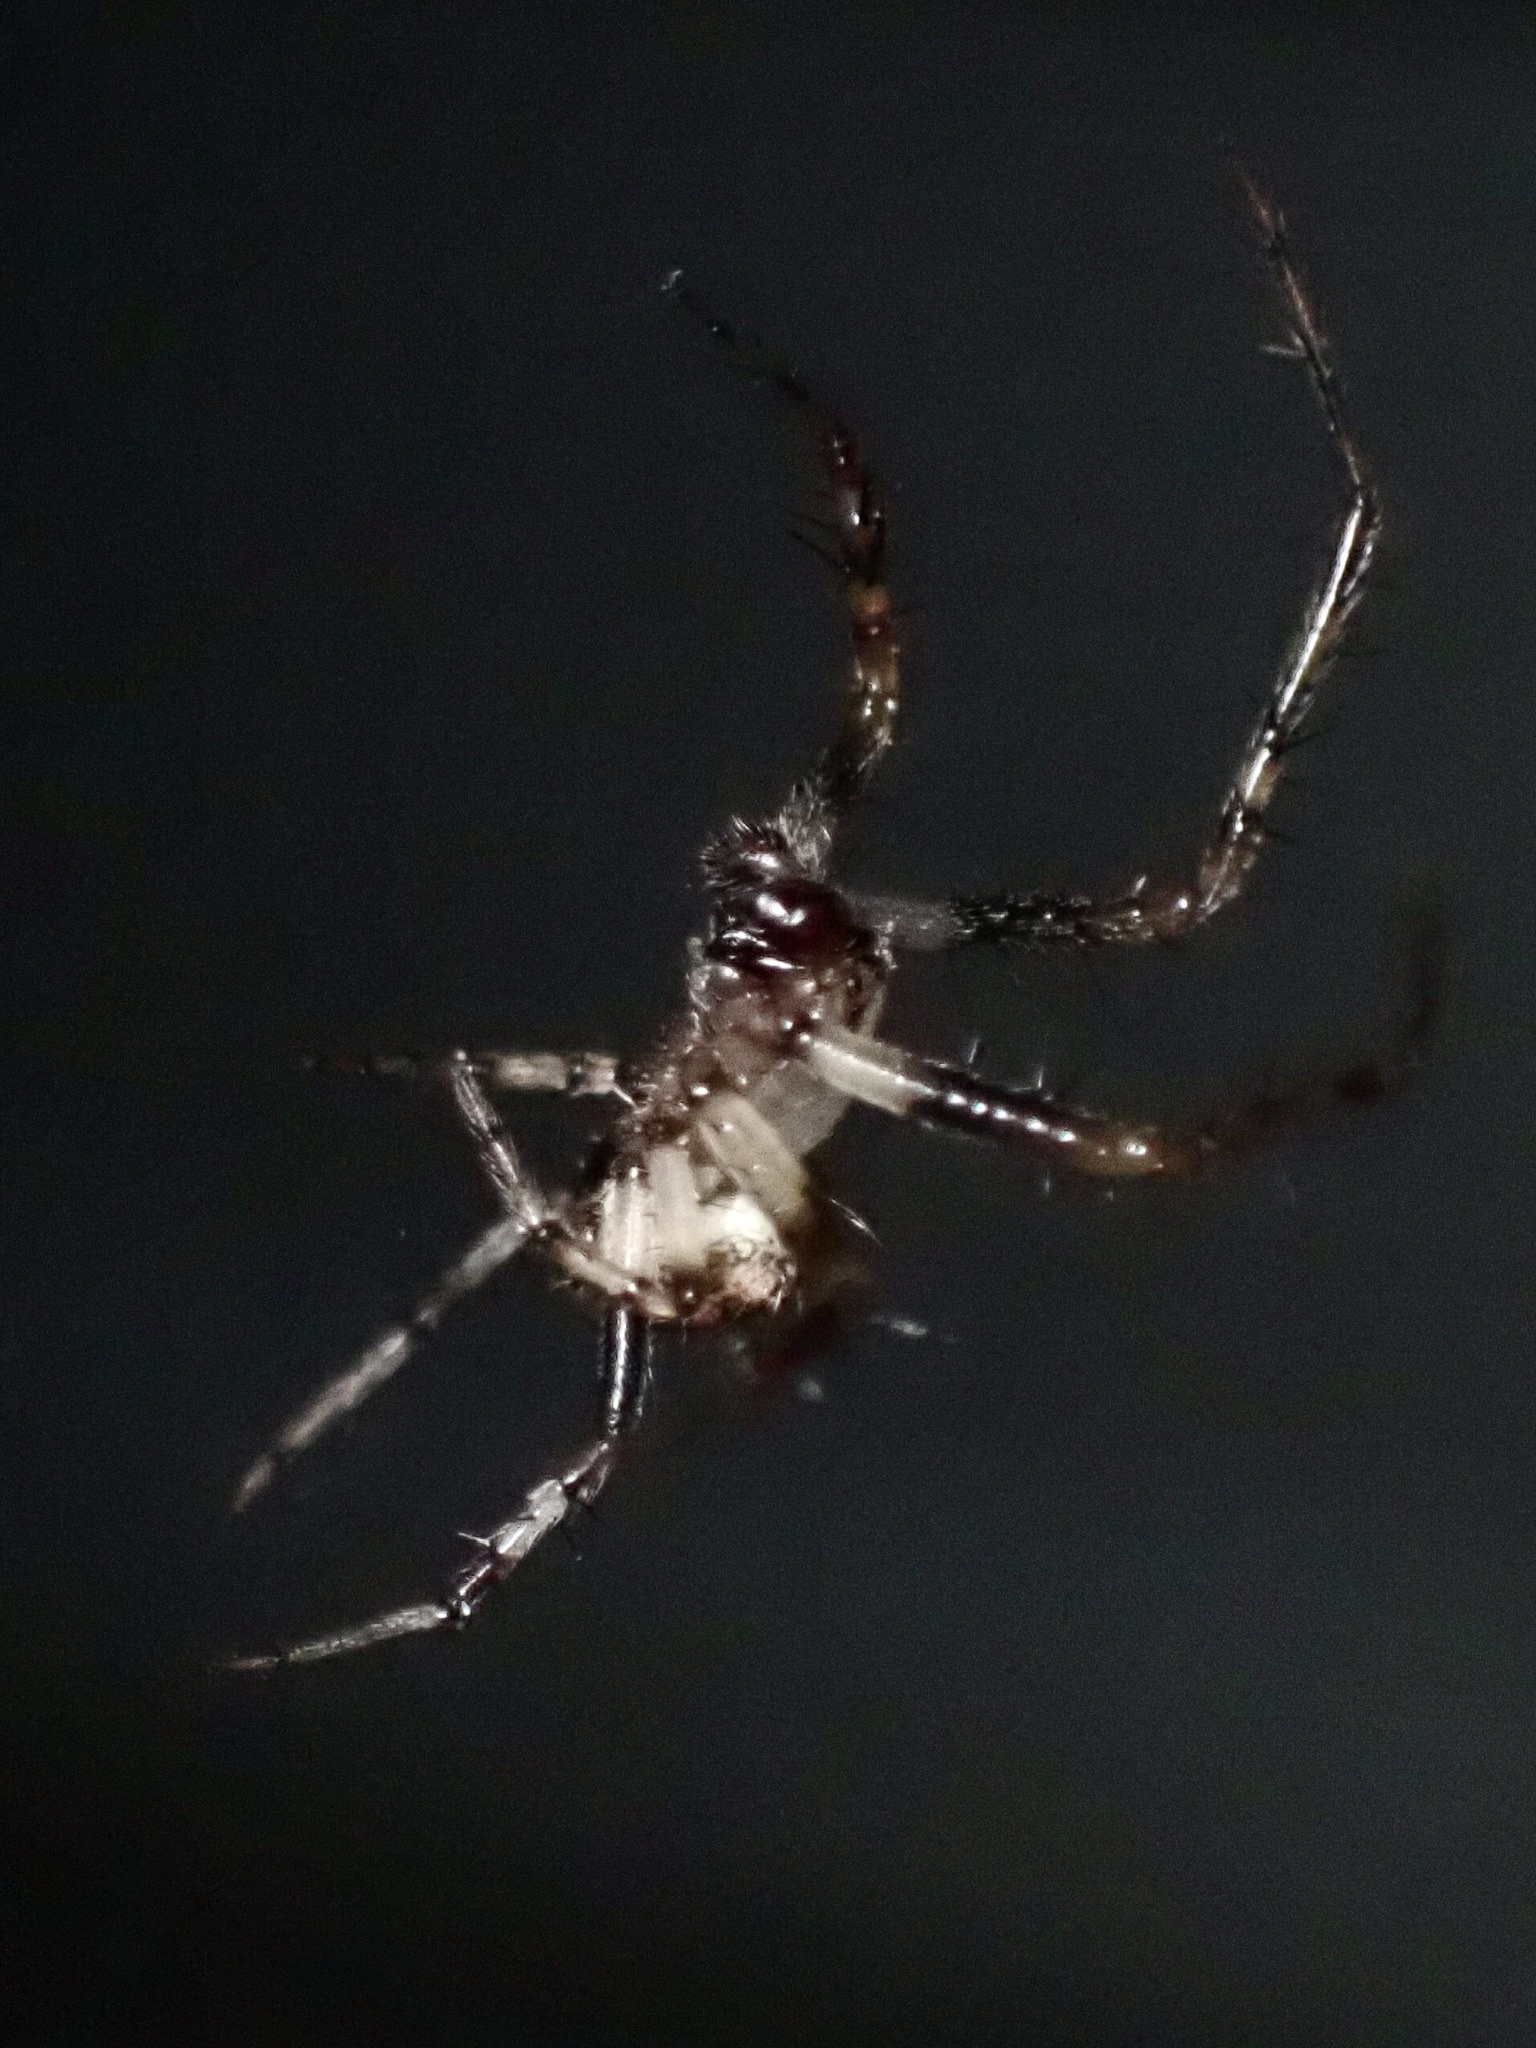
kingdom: Animalia
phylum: Arthropoda
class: Arachnida
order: Araneae
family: Araneidae
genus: Araneus
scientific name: Araneus pegnia
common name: Orb weavers
